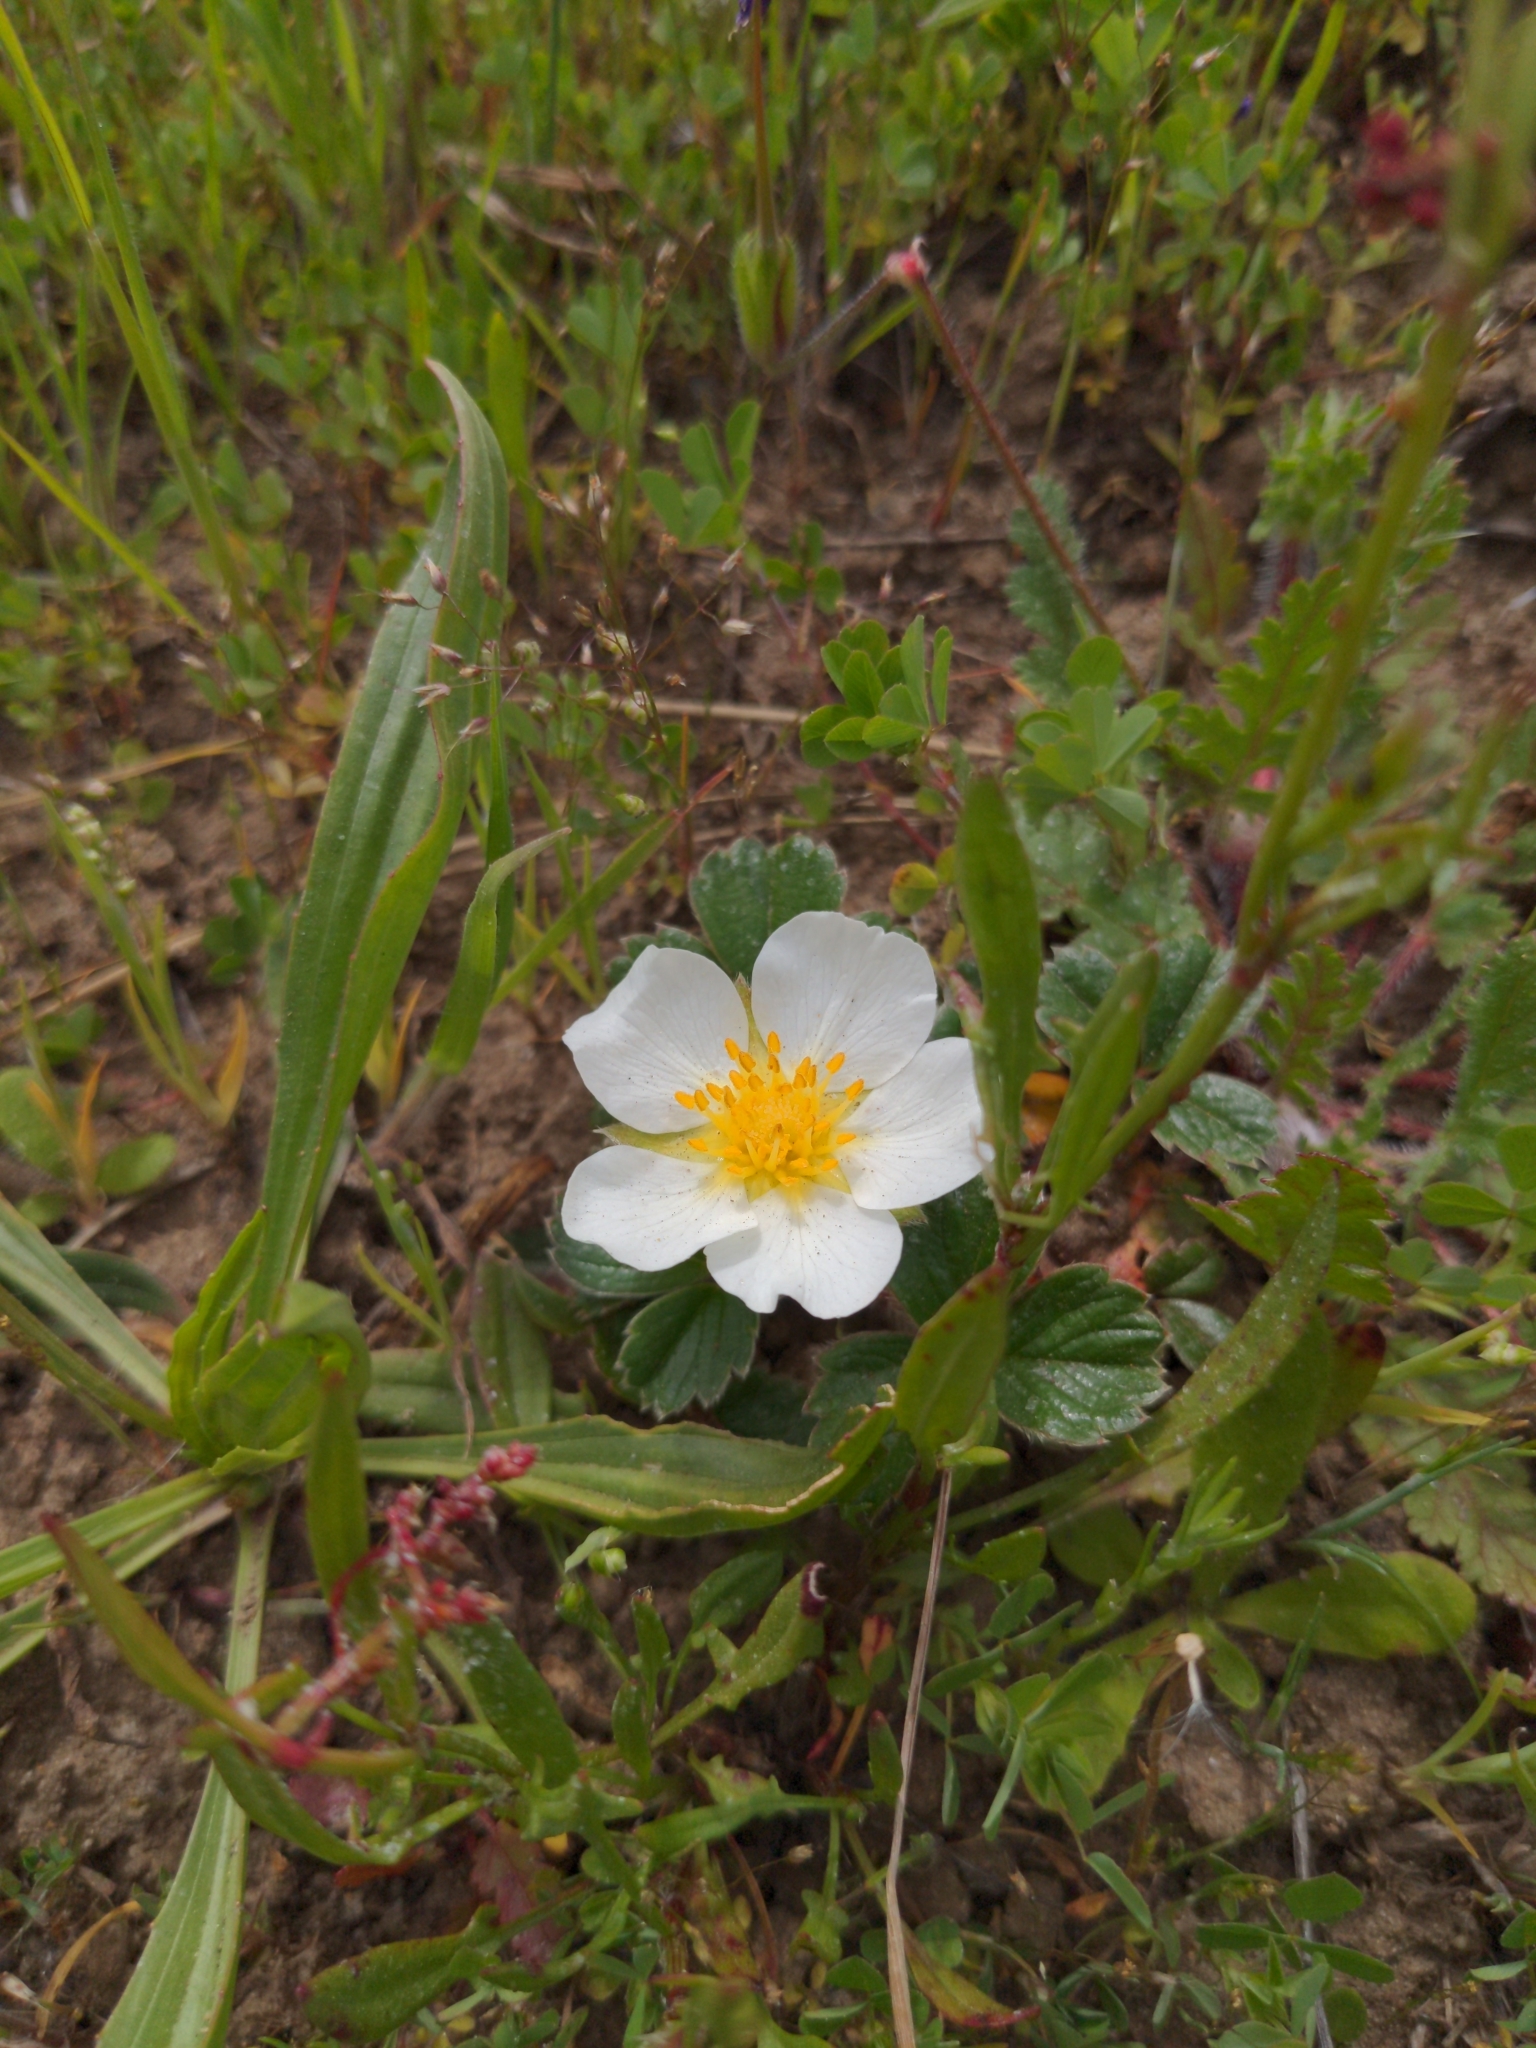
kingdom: Plantae
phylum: Tracheophyta
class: Magnoliopsida
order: Rosales
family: Rosaceae
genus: Fragaria
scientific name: Fragaria chiloensis
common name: Beach strawberry
